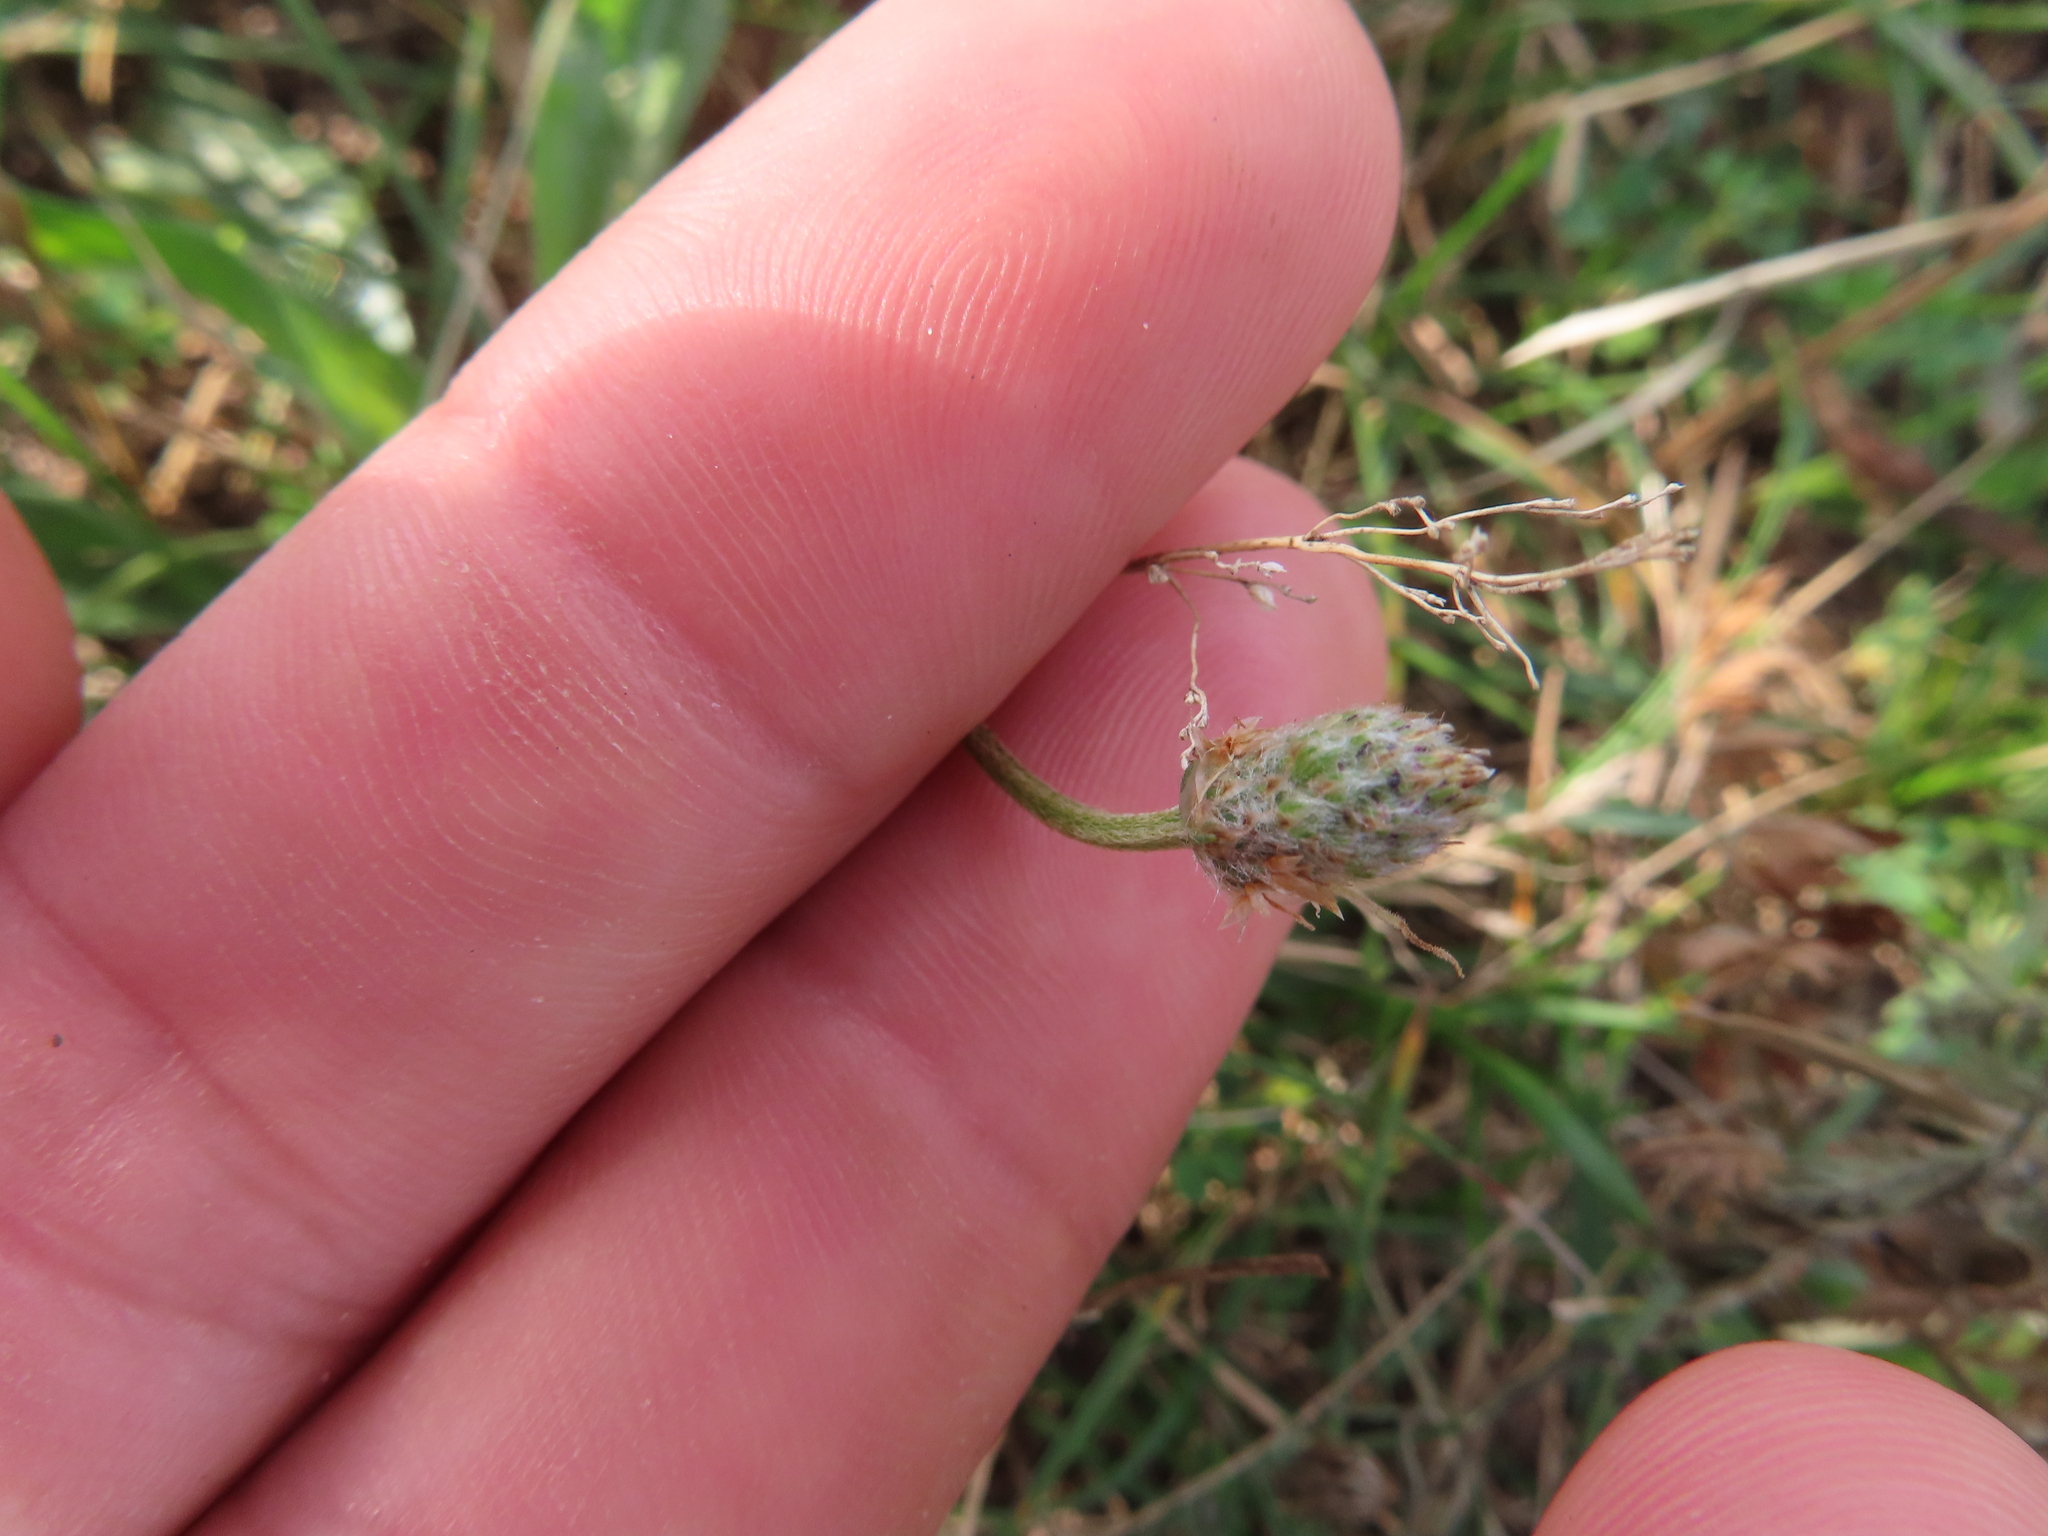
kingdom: Plantae
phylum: Tracheophyta
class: Magnoliopsida
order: Lamiales
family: Plantaginaceae
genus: Plantago
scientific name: Plantago lanceolata
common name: Ribwort plantain
